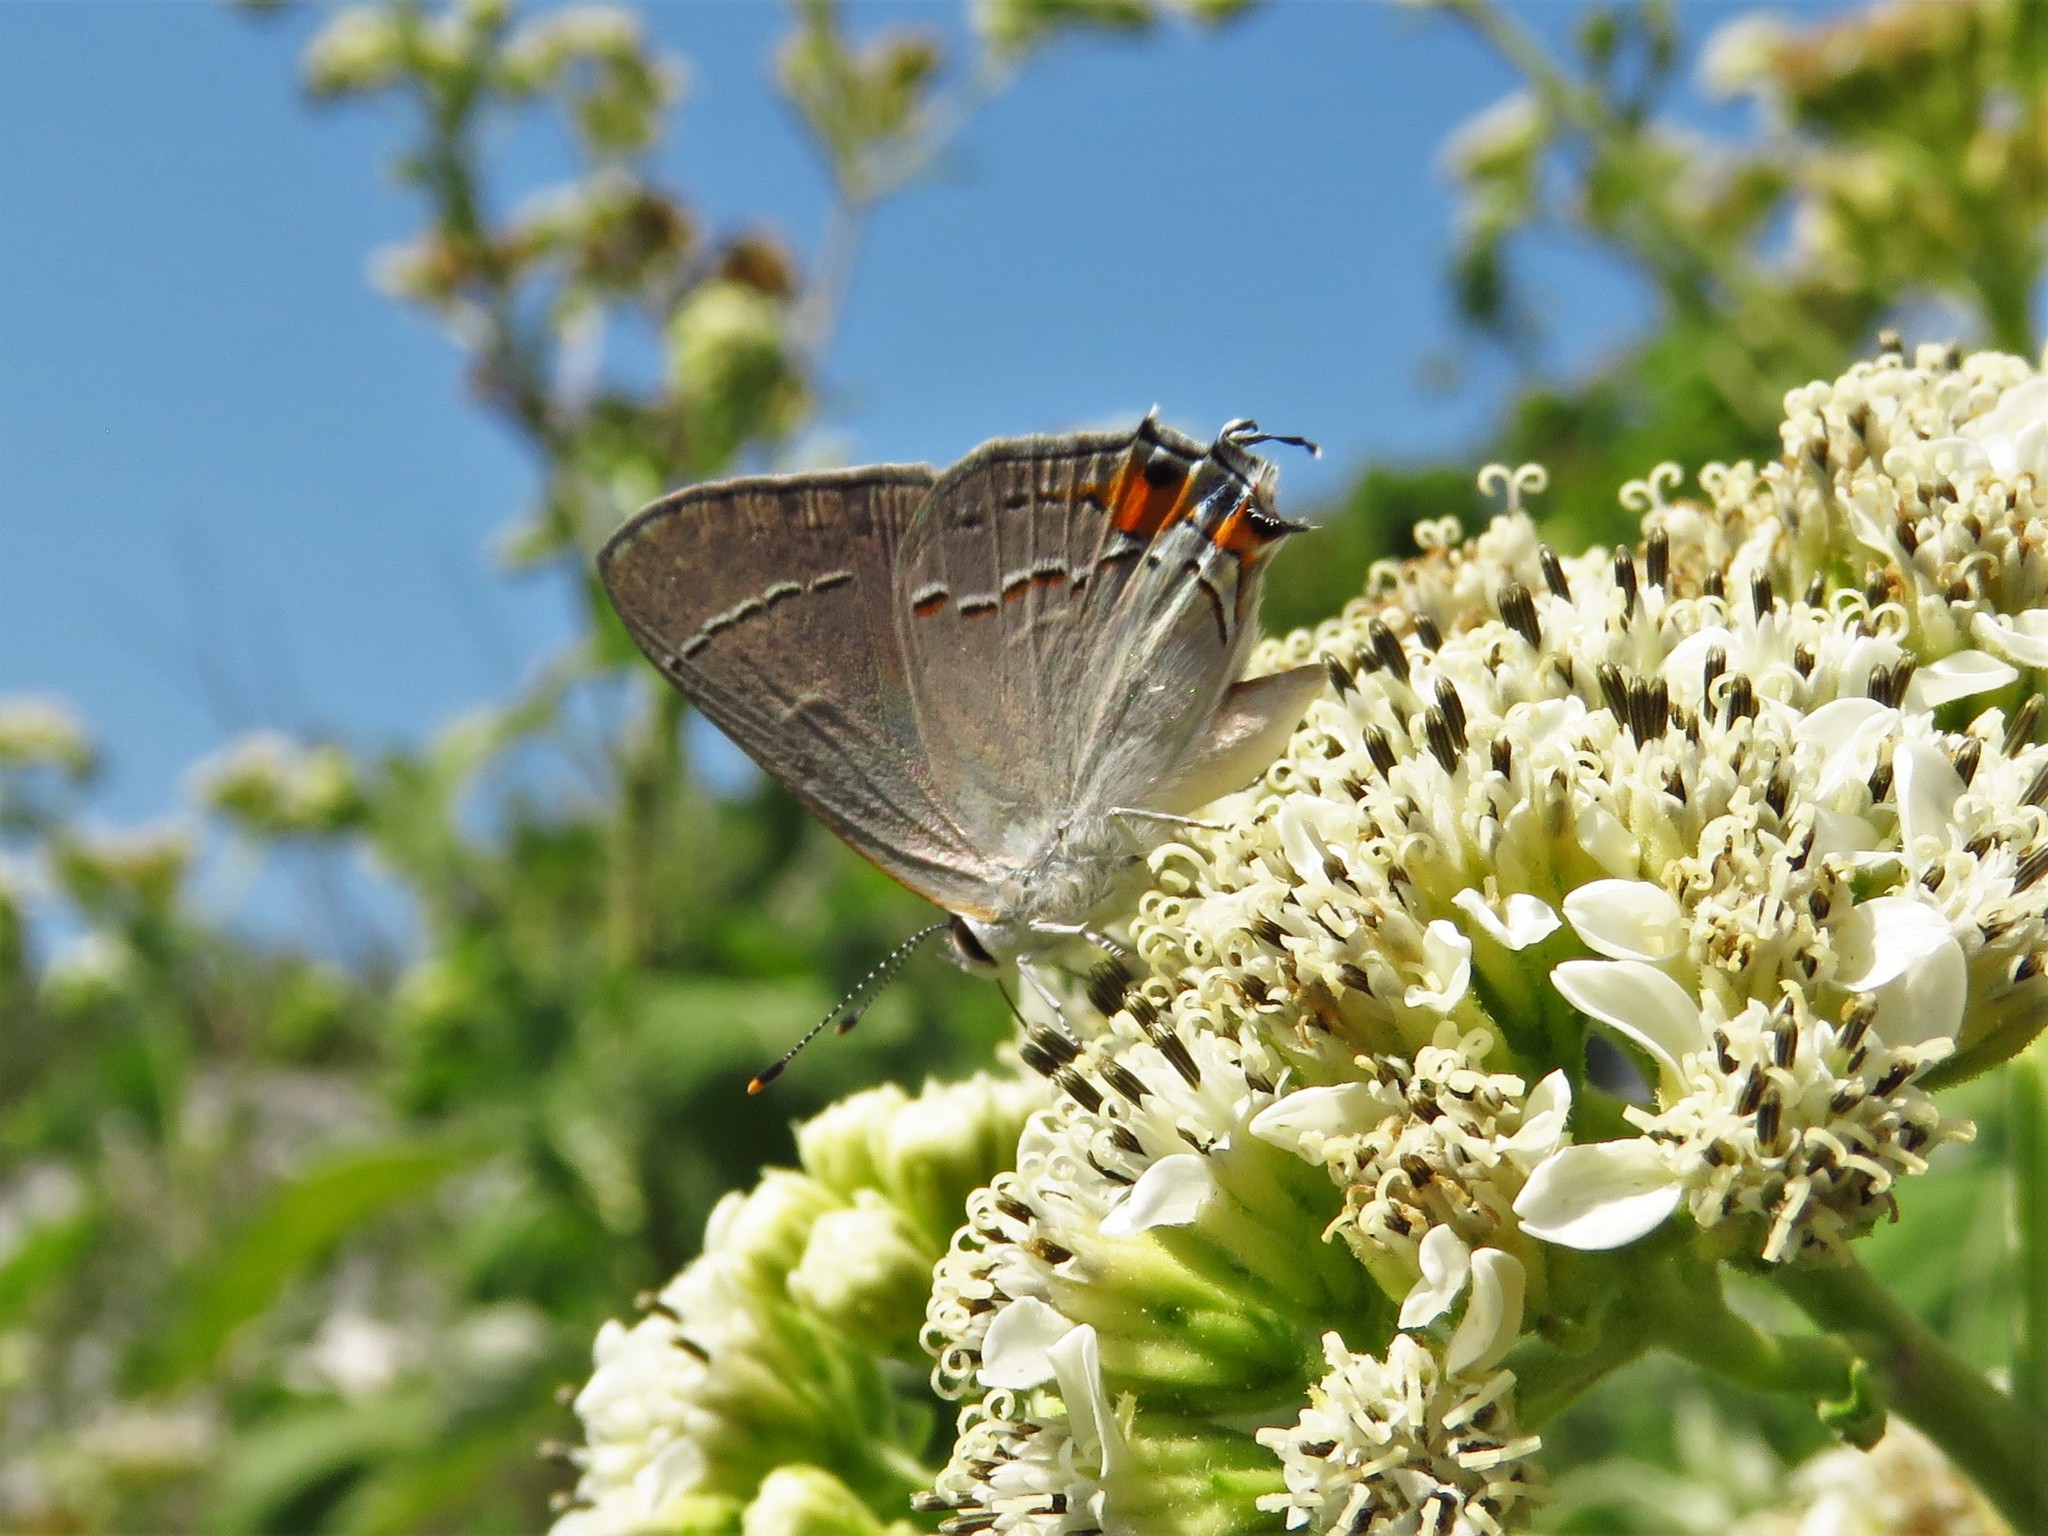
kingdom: Animalia
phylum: Arthropoda
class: Insecta
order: Lepidoptera
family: Lycaenidae
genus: Strymon
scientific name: Strymon melinus
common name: Gray hairstreak
